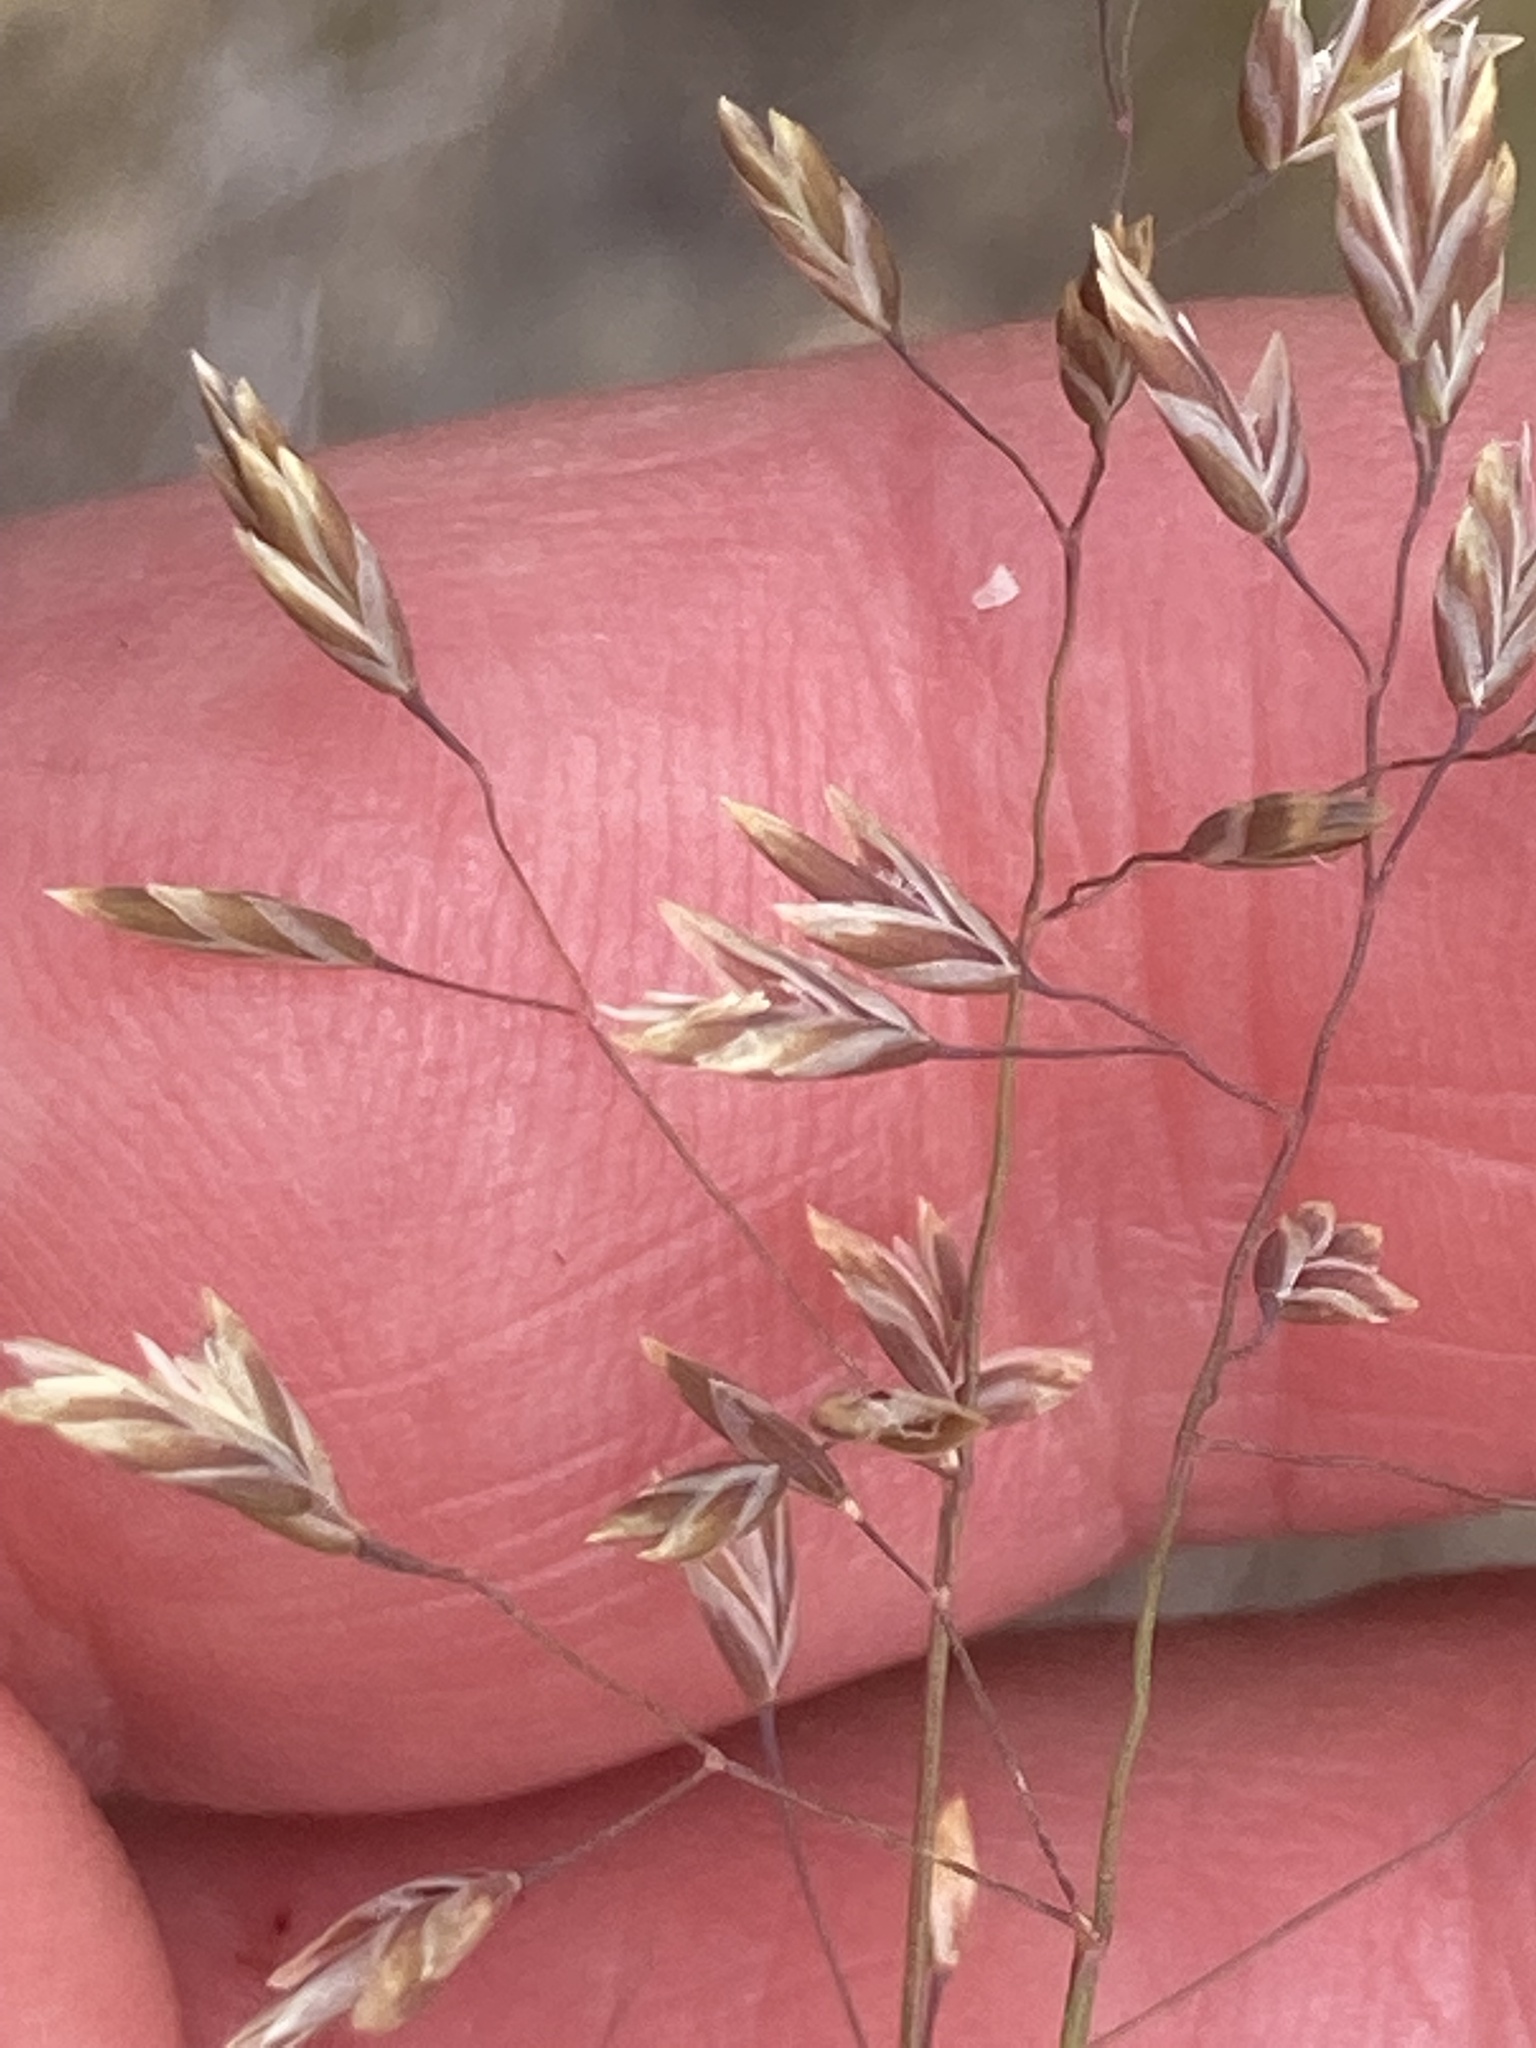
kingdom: Plantae
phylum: Tracheophyta
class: Liliopsida
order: Poales
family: Poaceae
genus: Poa
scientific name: Poa colensoi
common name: Blue tussock
